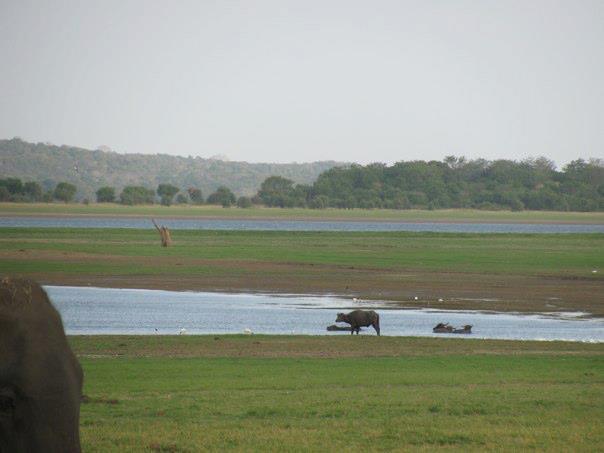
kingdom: Animalia
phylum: Chordata
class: Mammalia
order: Artiodactyla
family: Bovidae
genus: Bubalus
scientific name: Bubalus bubalis
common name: Water buffalo
